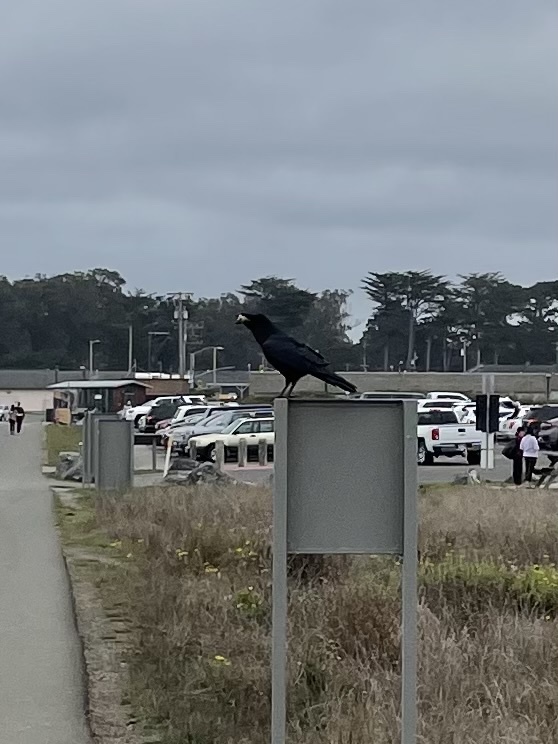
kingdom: Animalia
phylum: Chordata
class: Aves
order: Passeriformes
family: Corvidae
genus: Corvus
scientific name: Corvus corax
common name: Common raven
